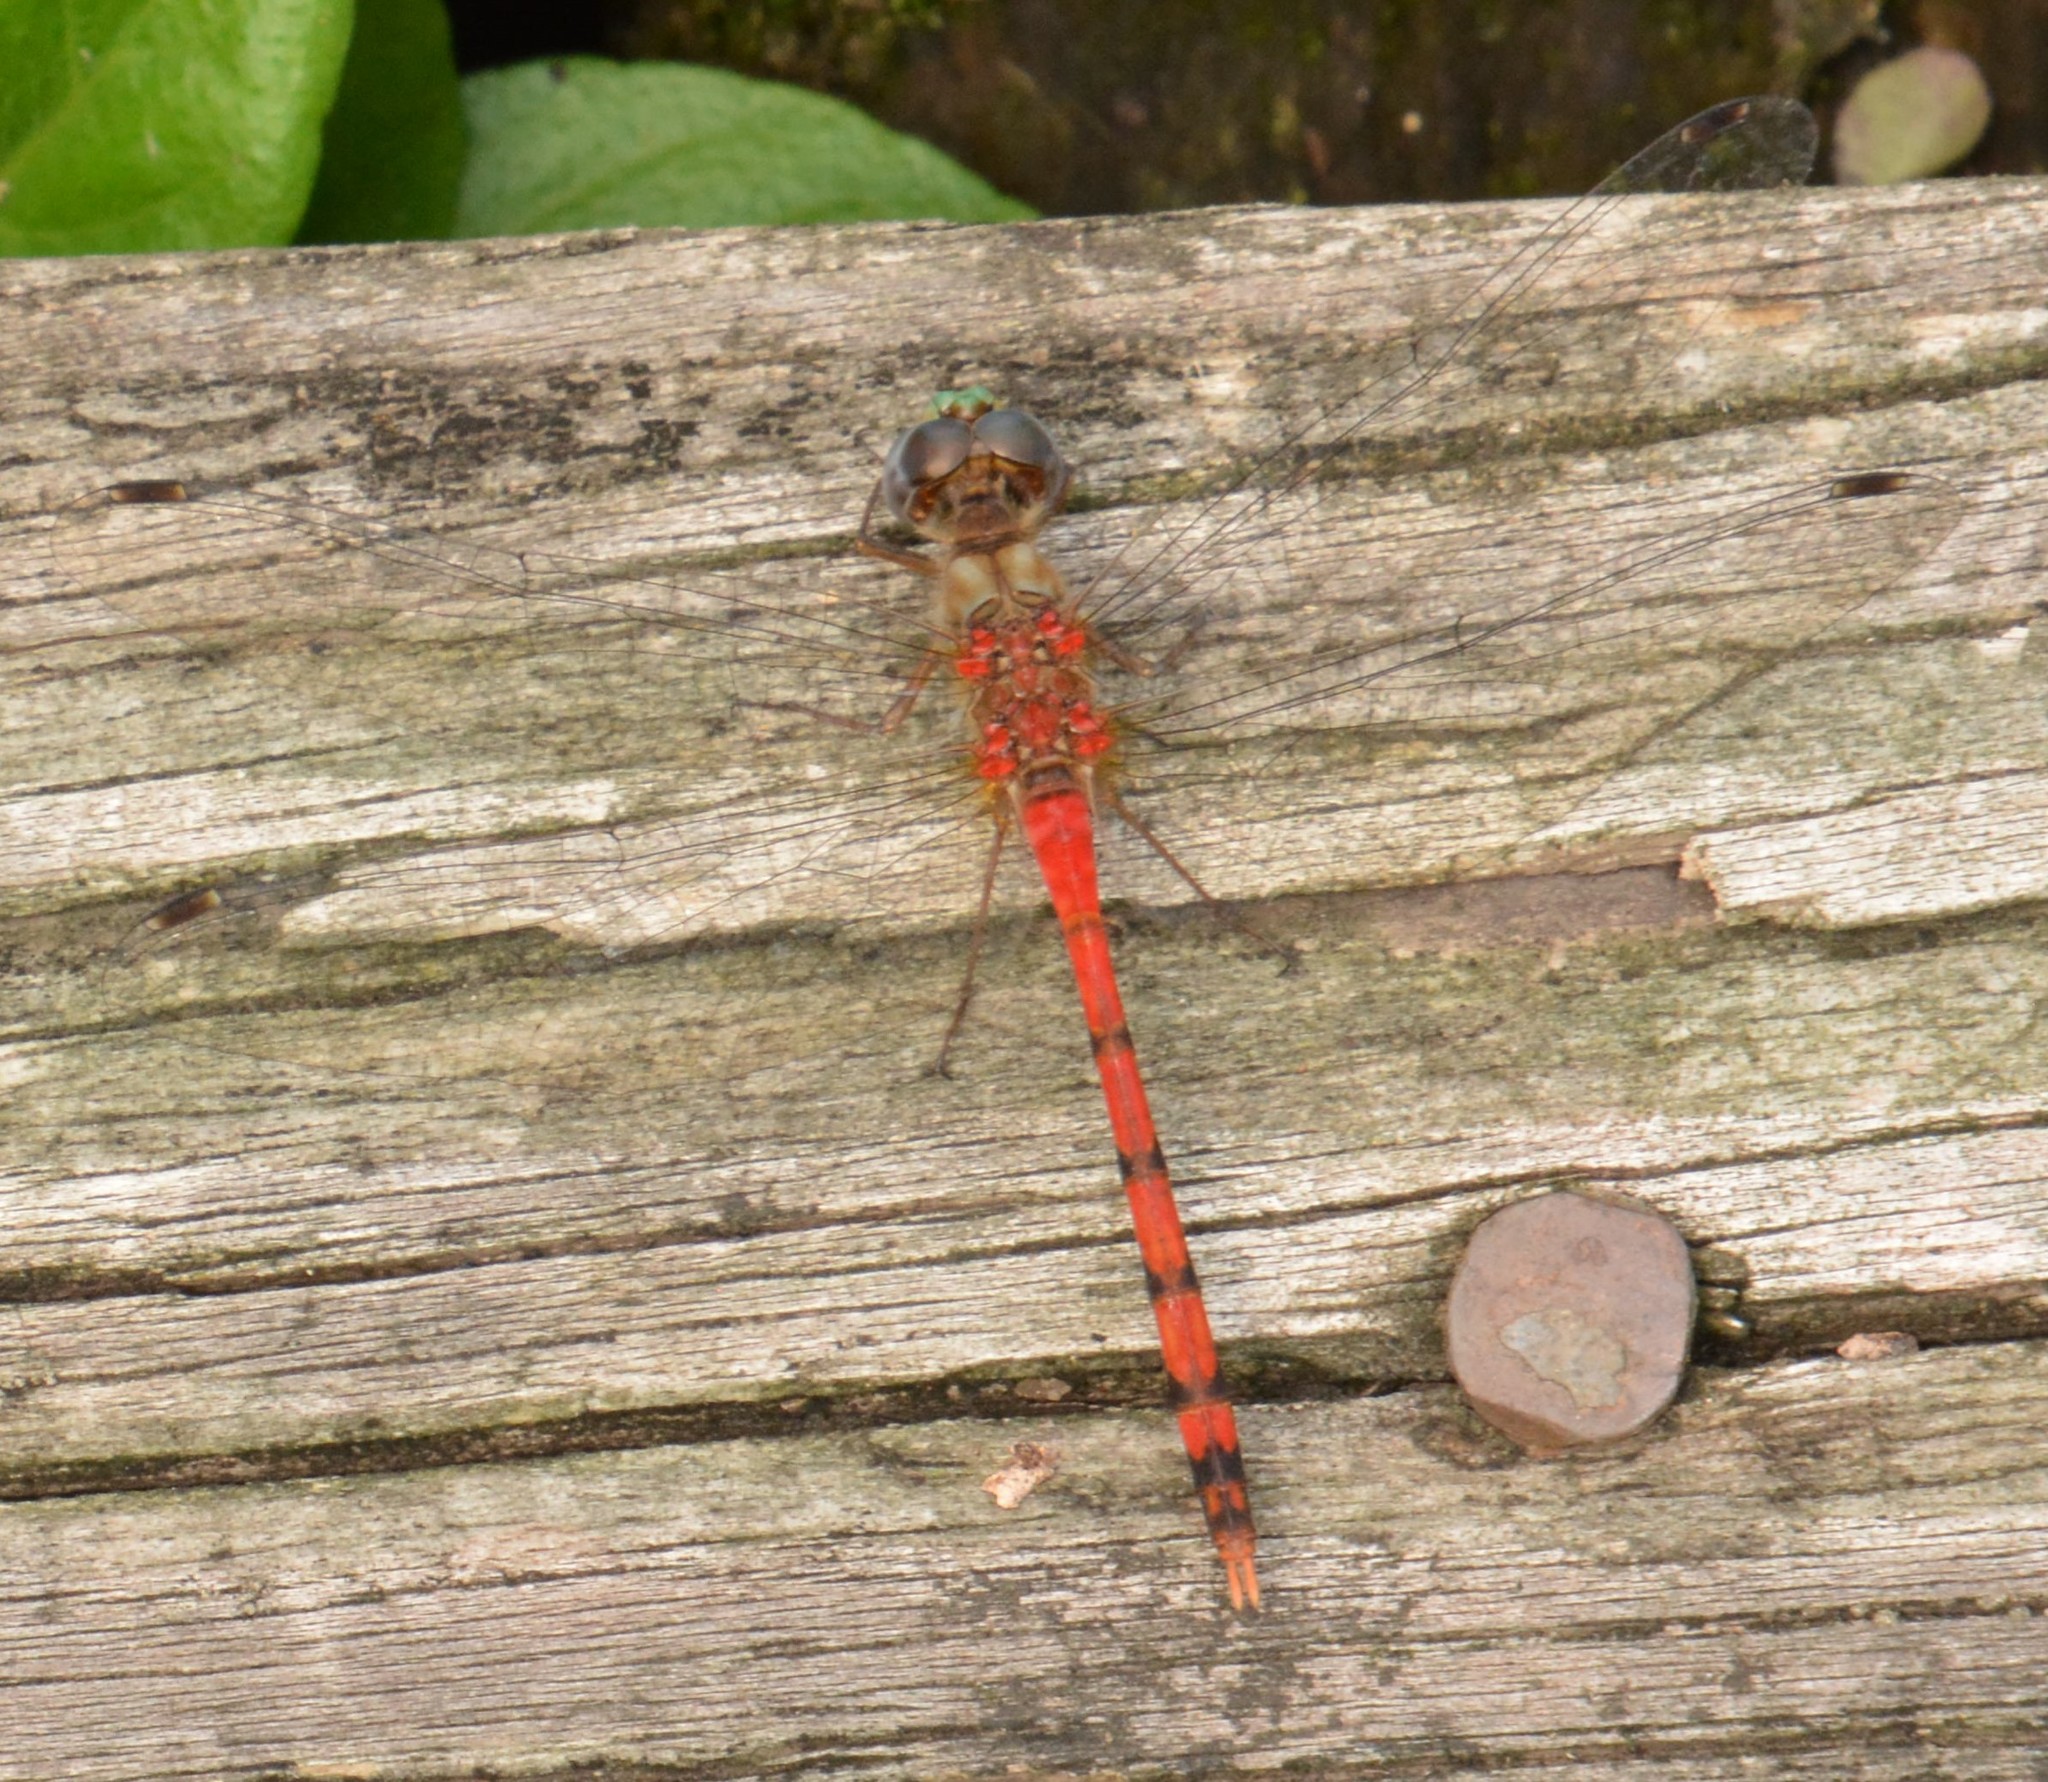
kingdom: Animalia
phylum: Arthropoda
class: Insecta
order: Odonata
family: Libellulidae
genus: Sympetrum
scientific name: Sympetrum ambiguum
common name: Blue-faced meadowhawk
